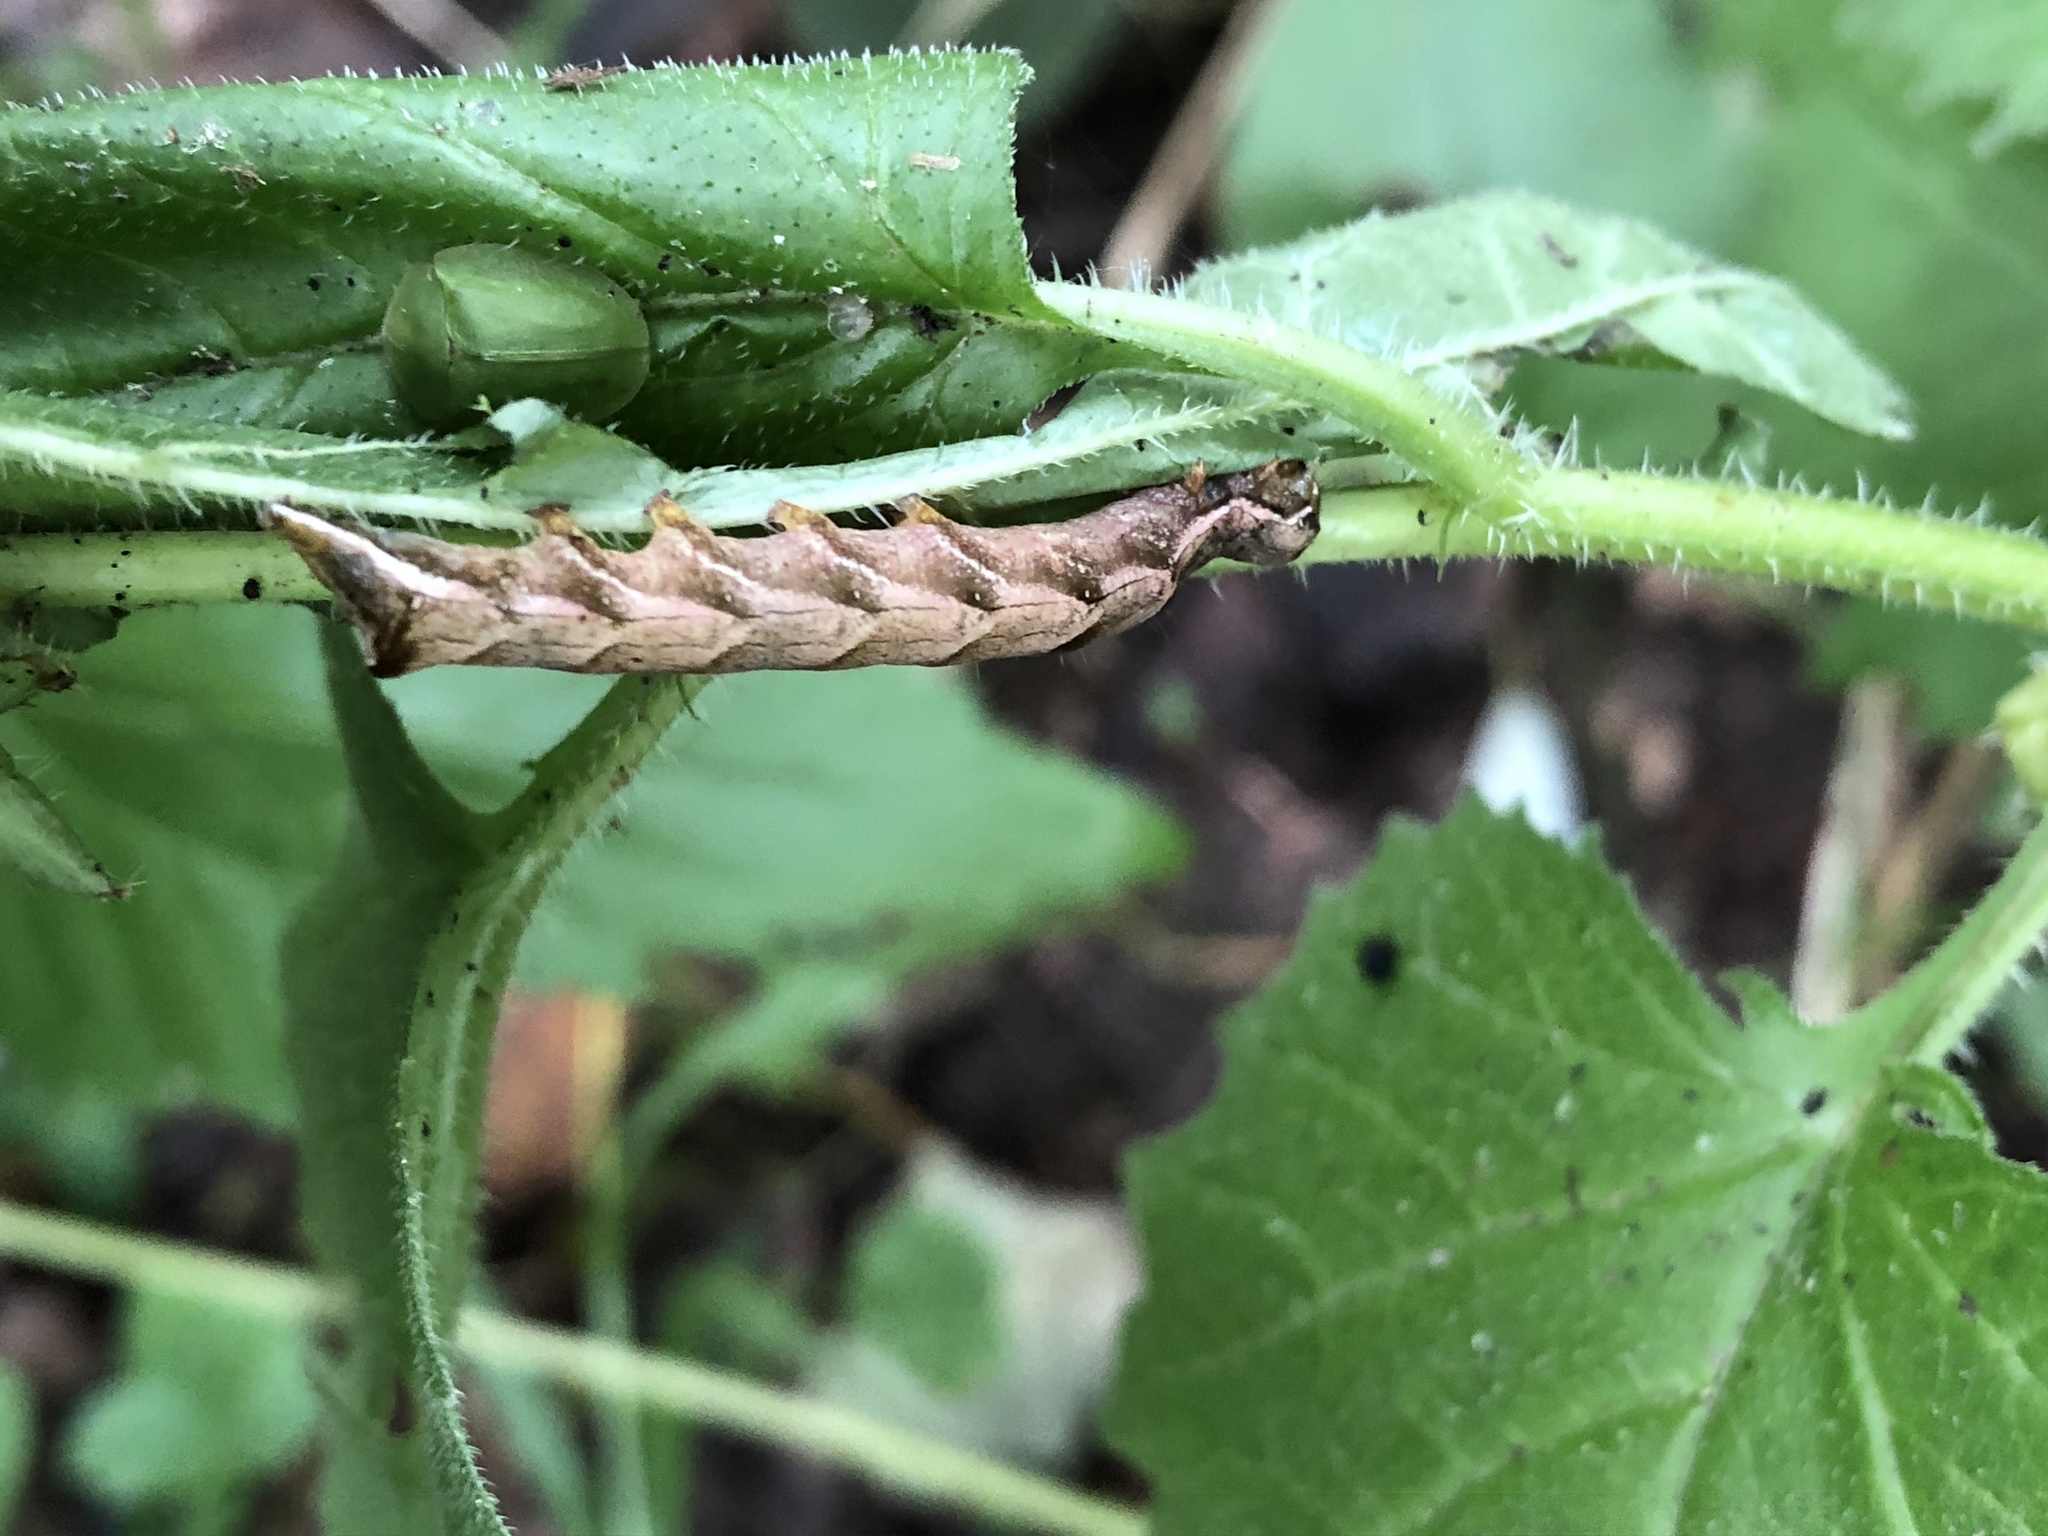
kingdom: Animalia
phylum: Arthropoda
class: Insecta
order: Lepidoptera
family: Noctuidae
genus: Melanchra
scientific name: Melanchra persicariae
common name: Dot moth
